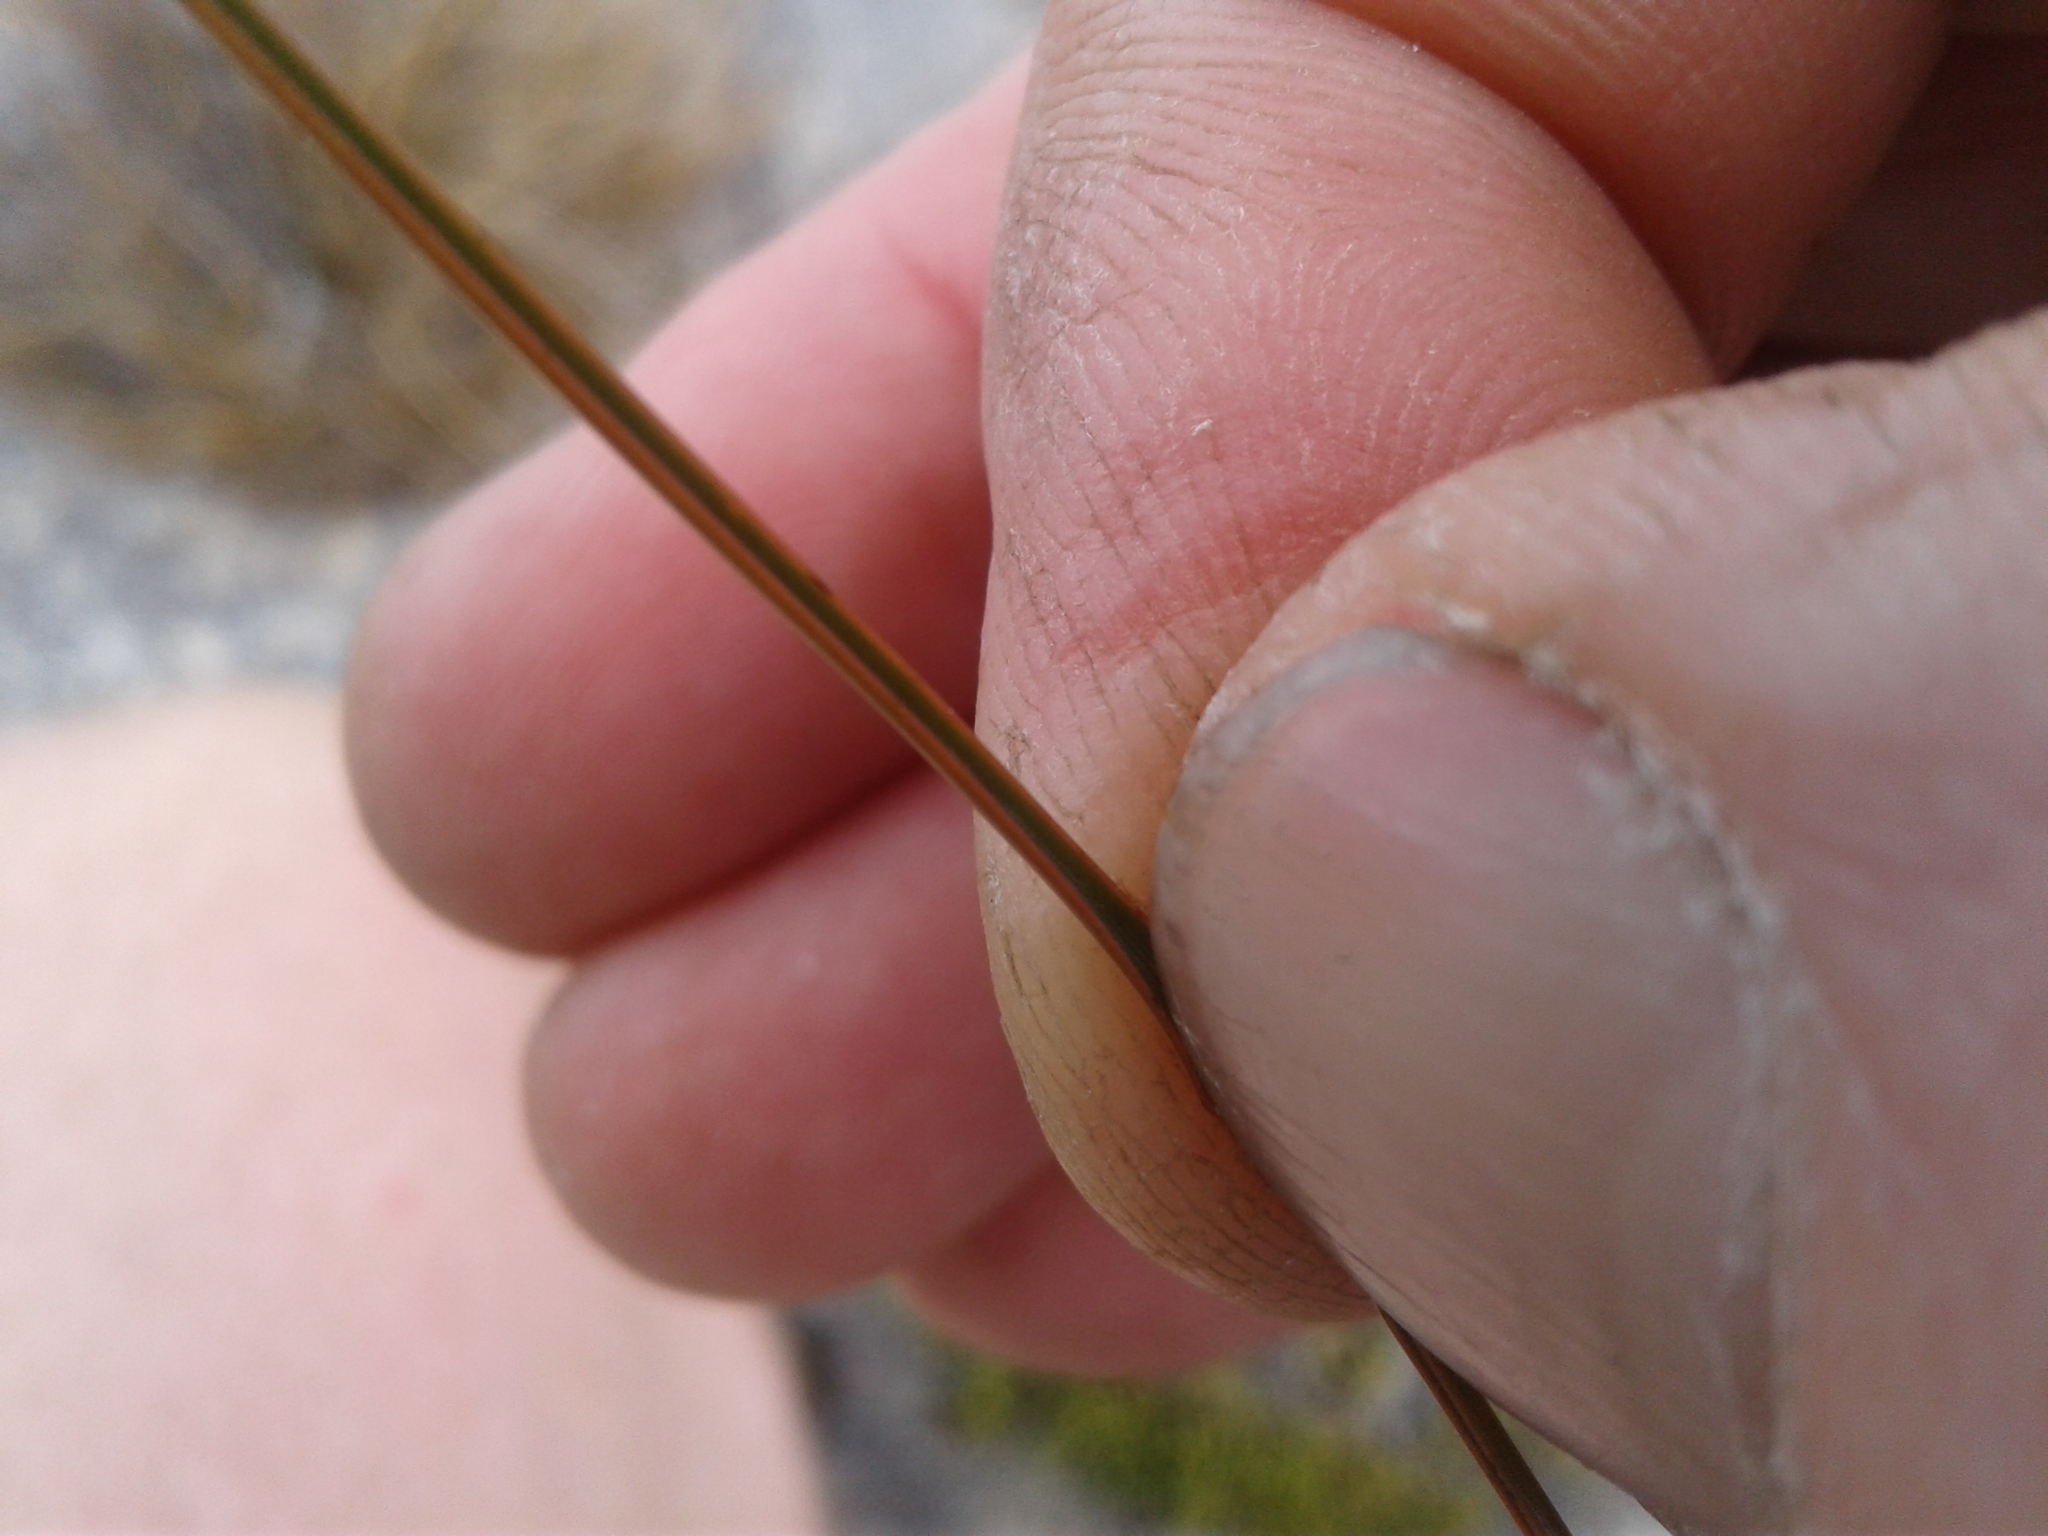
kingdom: Plantae
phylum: Tracheophyta
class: Liliopsida
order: Poales
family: Poaceae
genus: Chionochloa
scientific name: Chionochloa juncea
